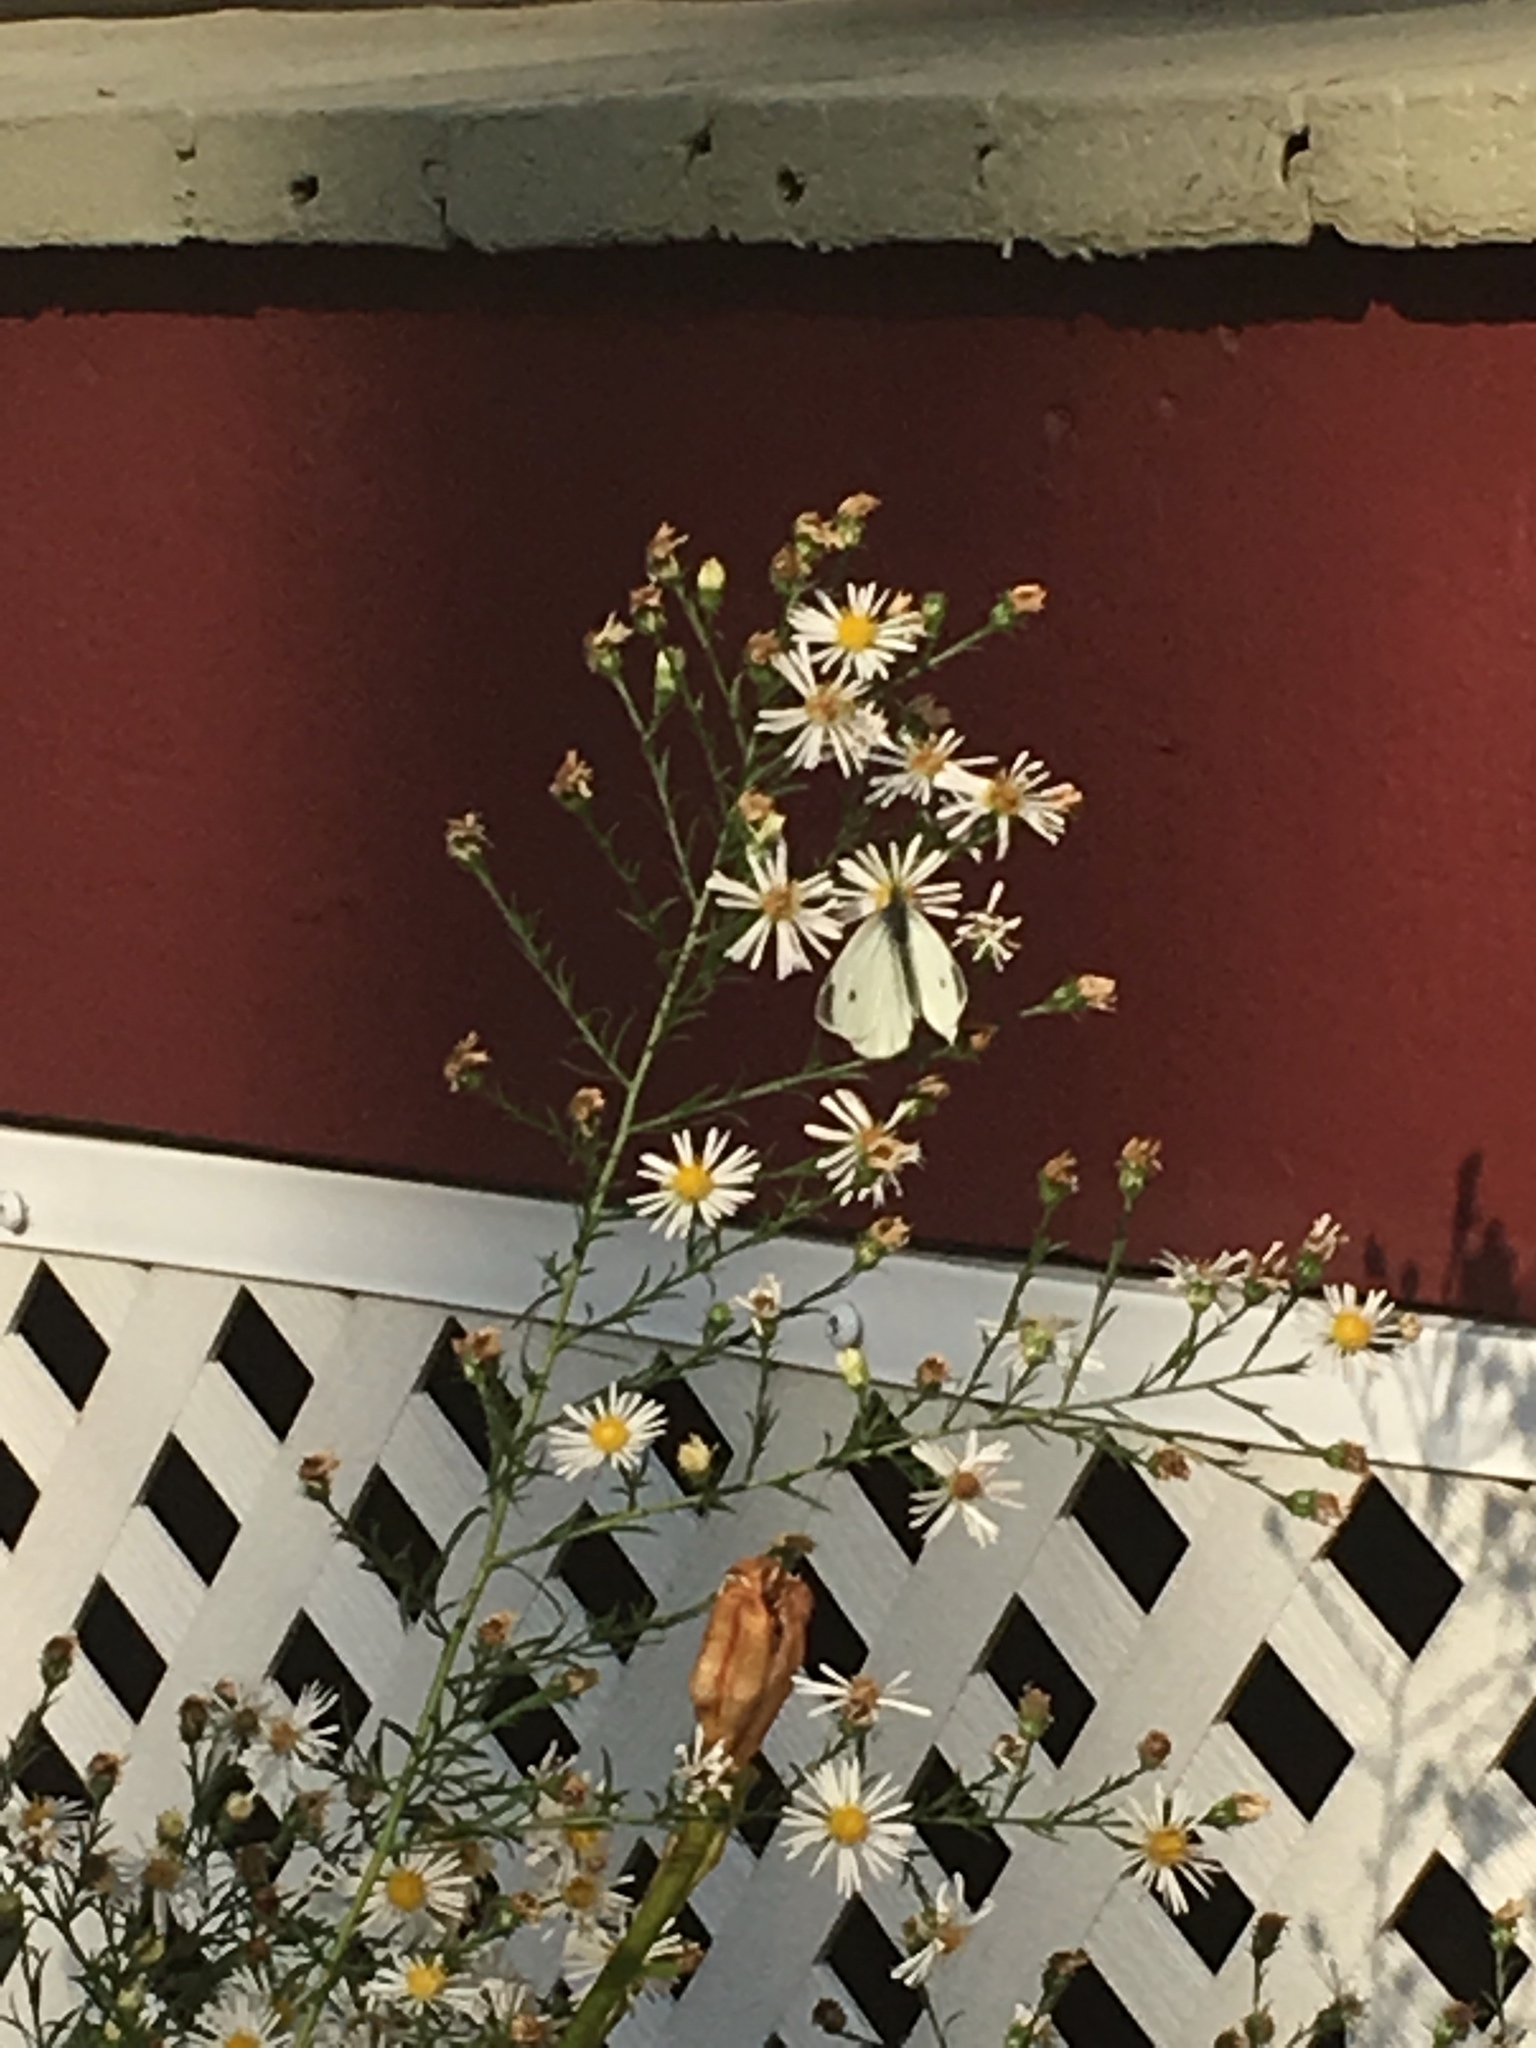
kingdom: Animalia
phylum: Arthropoda
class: Insecta
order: Lepidoptera
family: Pieridae
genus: Pieris
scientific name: Pieris rapae
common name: Small white
